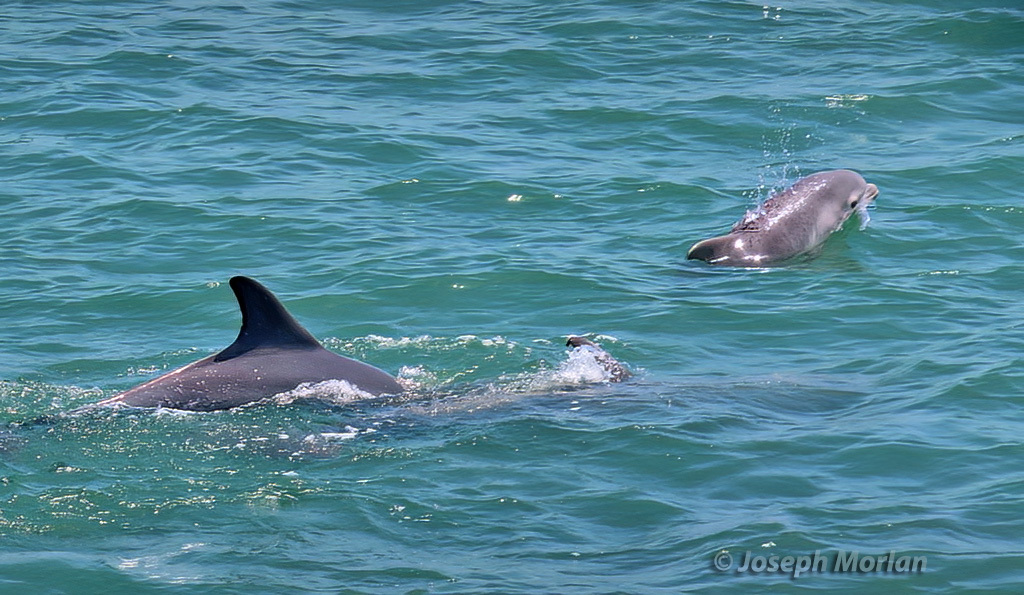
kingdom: Animalia
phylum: Chordata
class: Mammalia
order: Cetacea
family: Delphinidae
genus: Tursiops
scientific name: Tursiops truncatus
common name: Bottlenose dolphin
